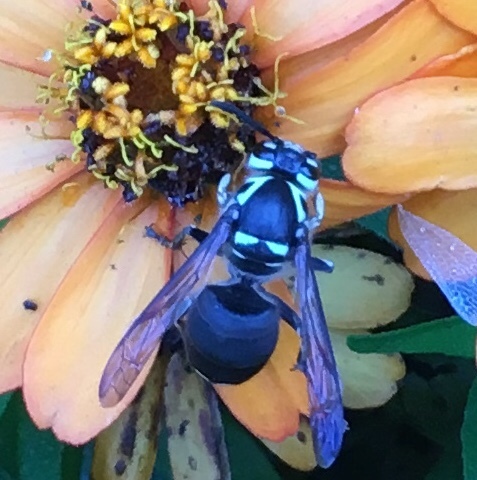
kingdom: Animalia
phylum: Arthropoda
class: Insecta
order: Hymenoptera
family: Vespidae
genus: Dolichovespula
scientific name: Dolichovespula maculata
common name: Bald-faced hornet
